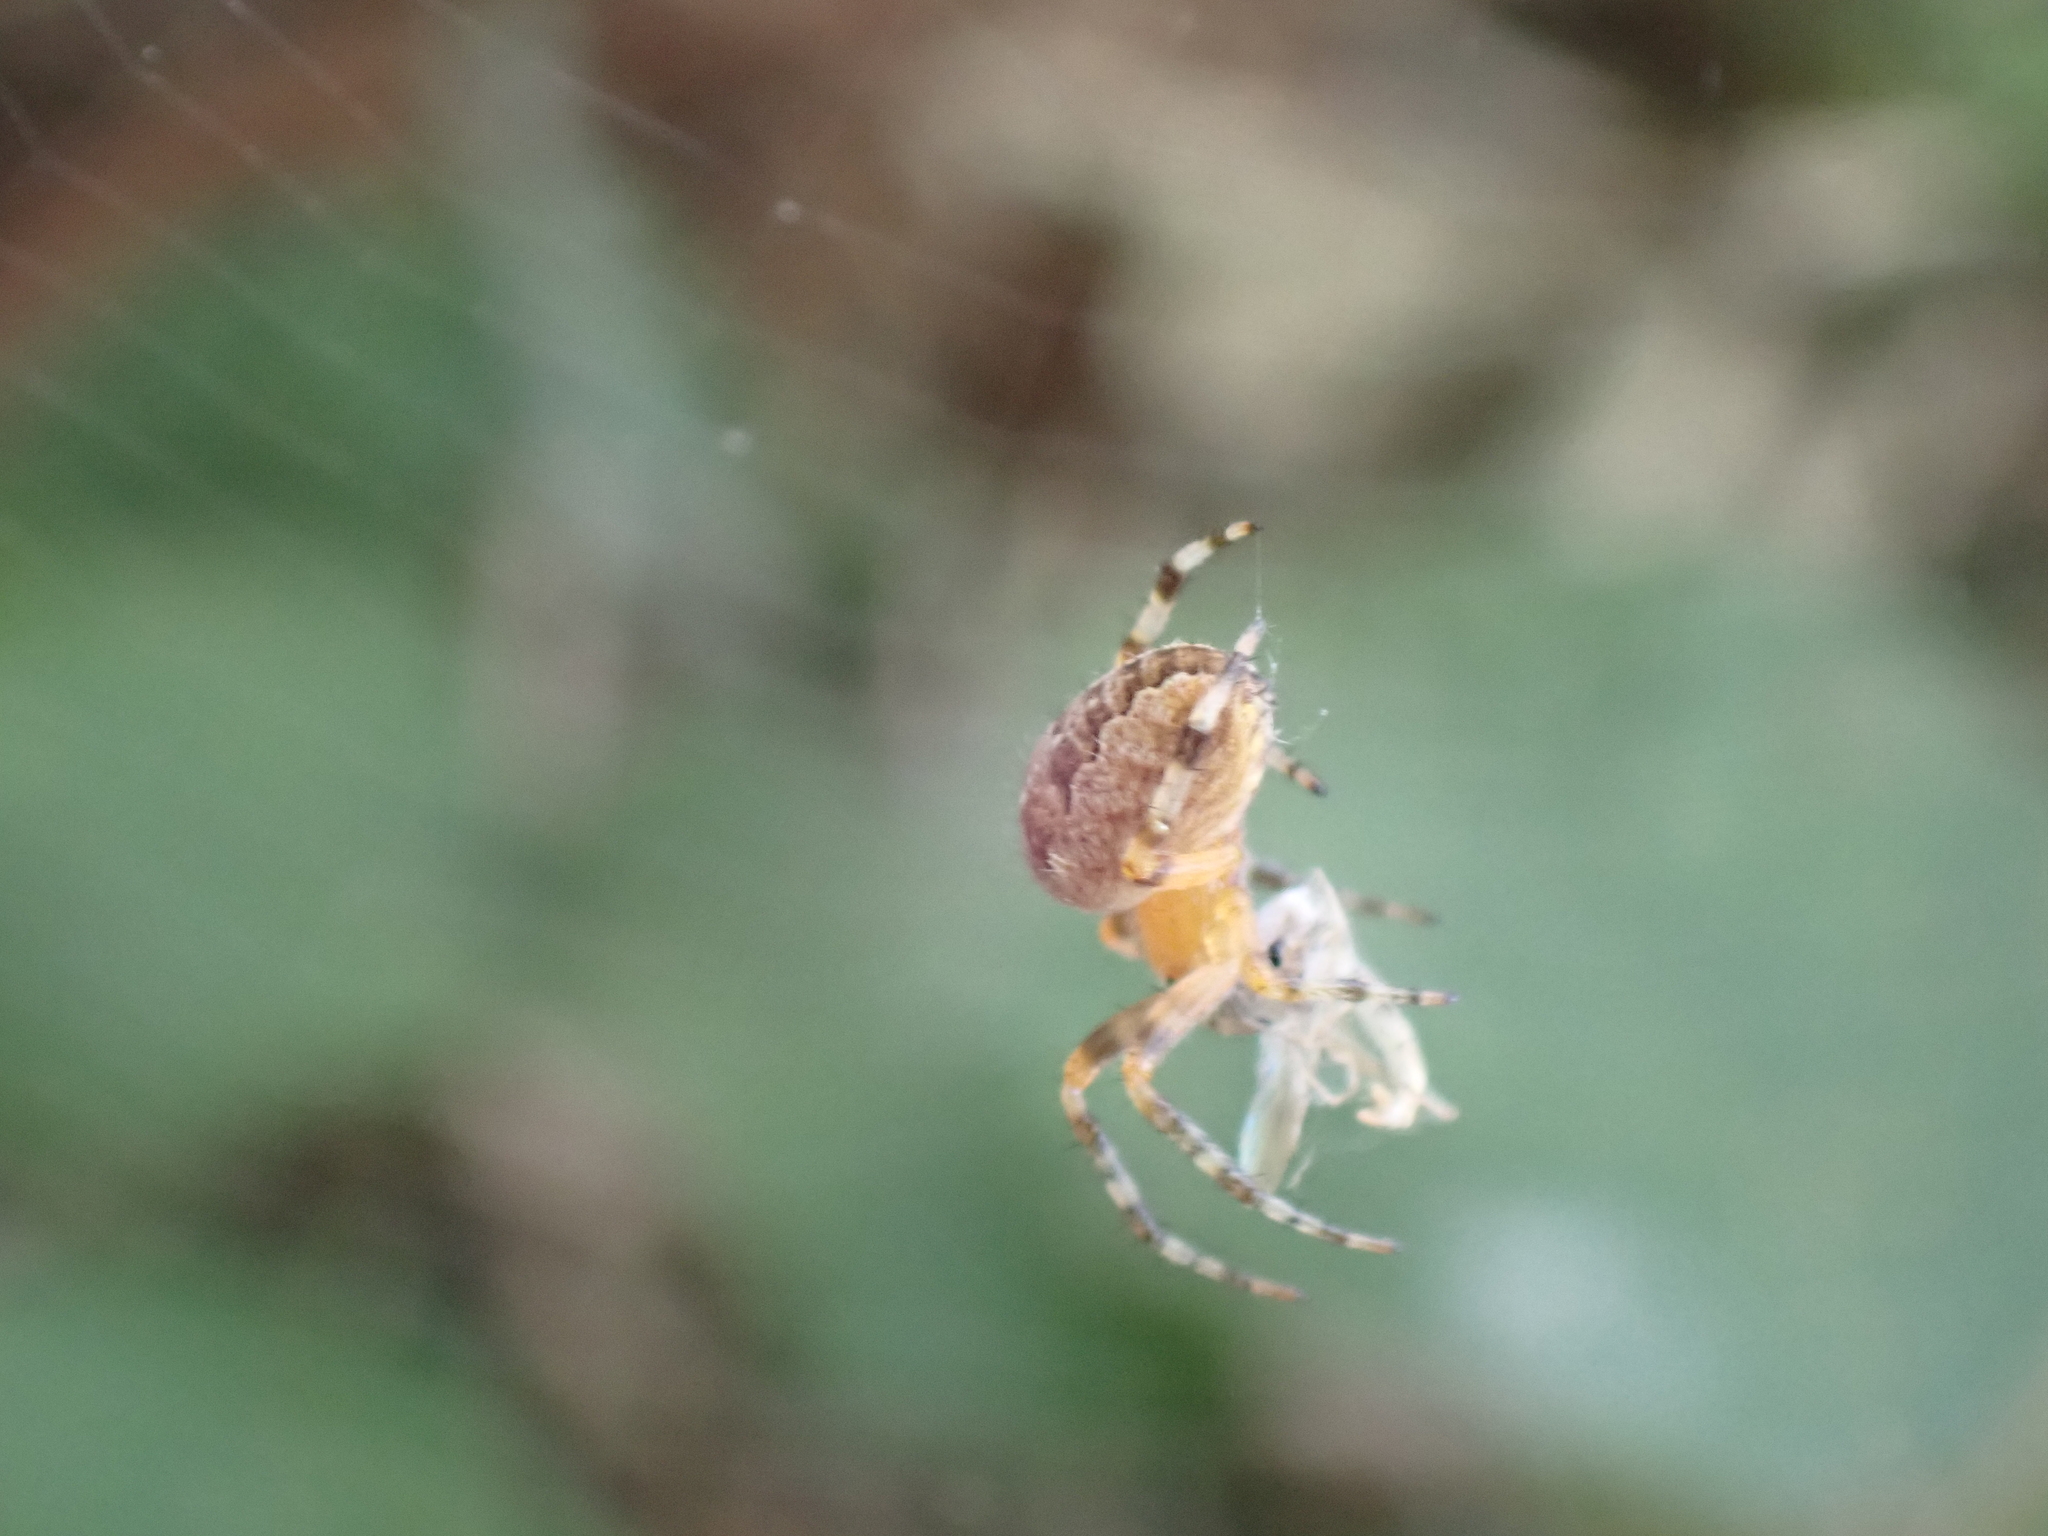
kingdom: Animalia
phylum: Arthropoda
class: Arachnida
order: Araneae
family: Araneidae
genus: Araneus
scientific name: Araneus diadematus
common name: Cross orbweaver
